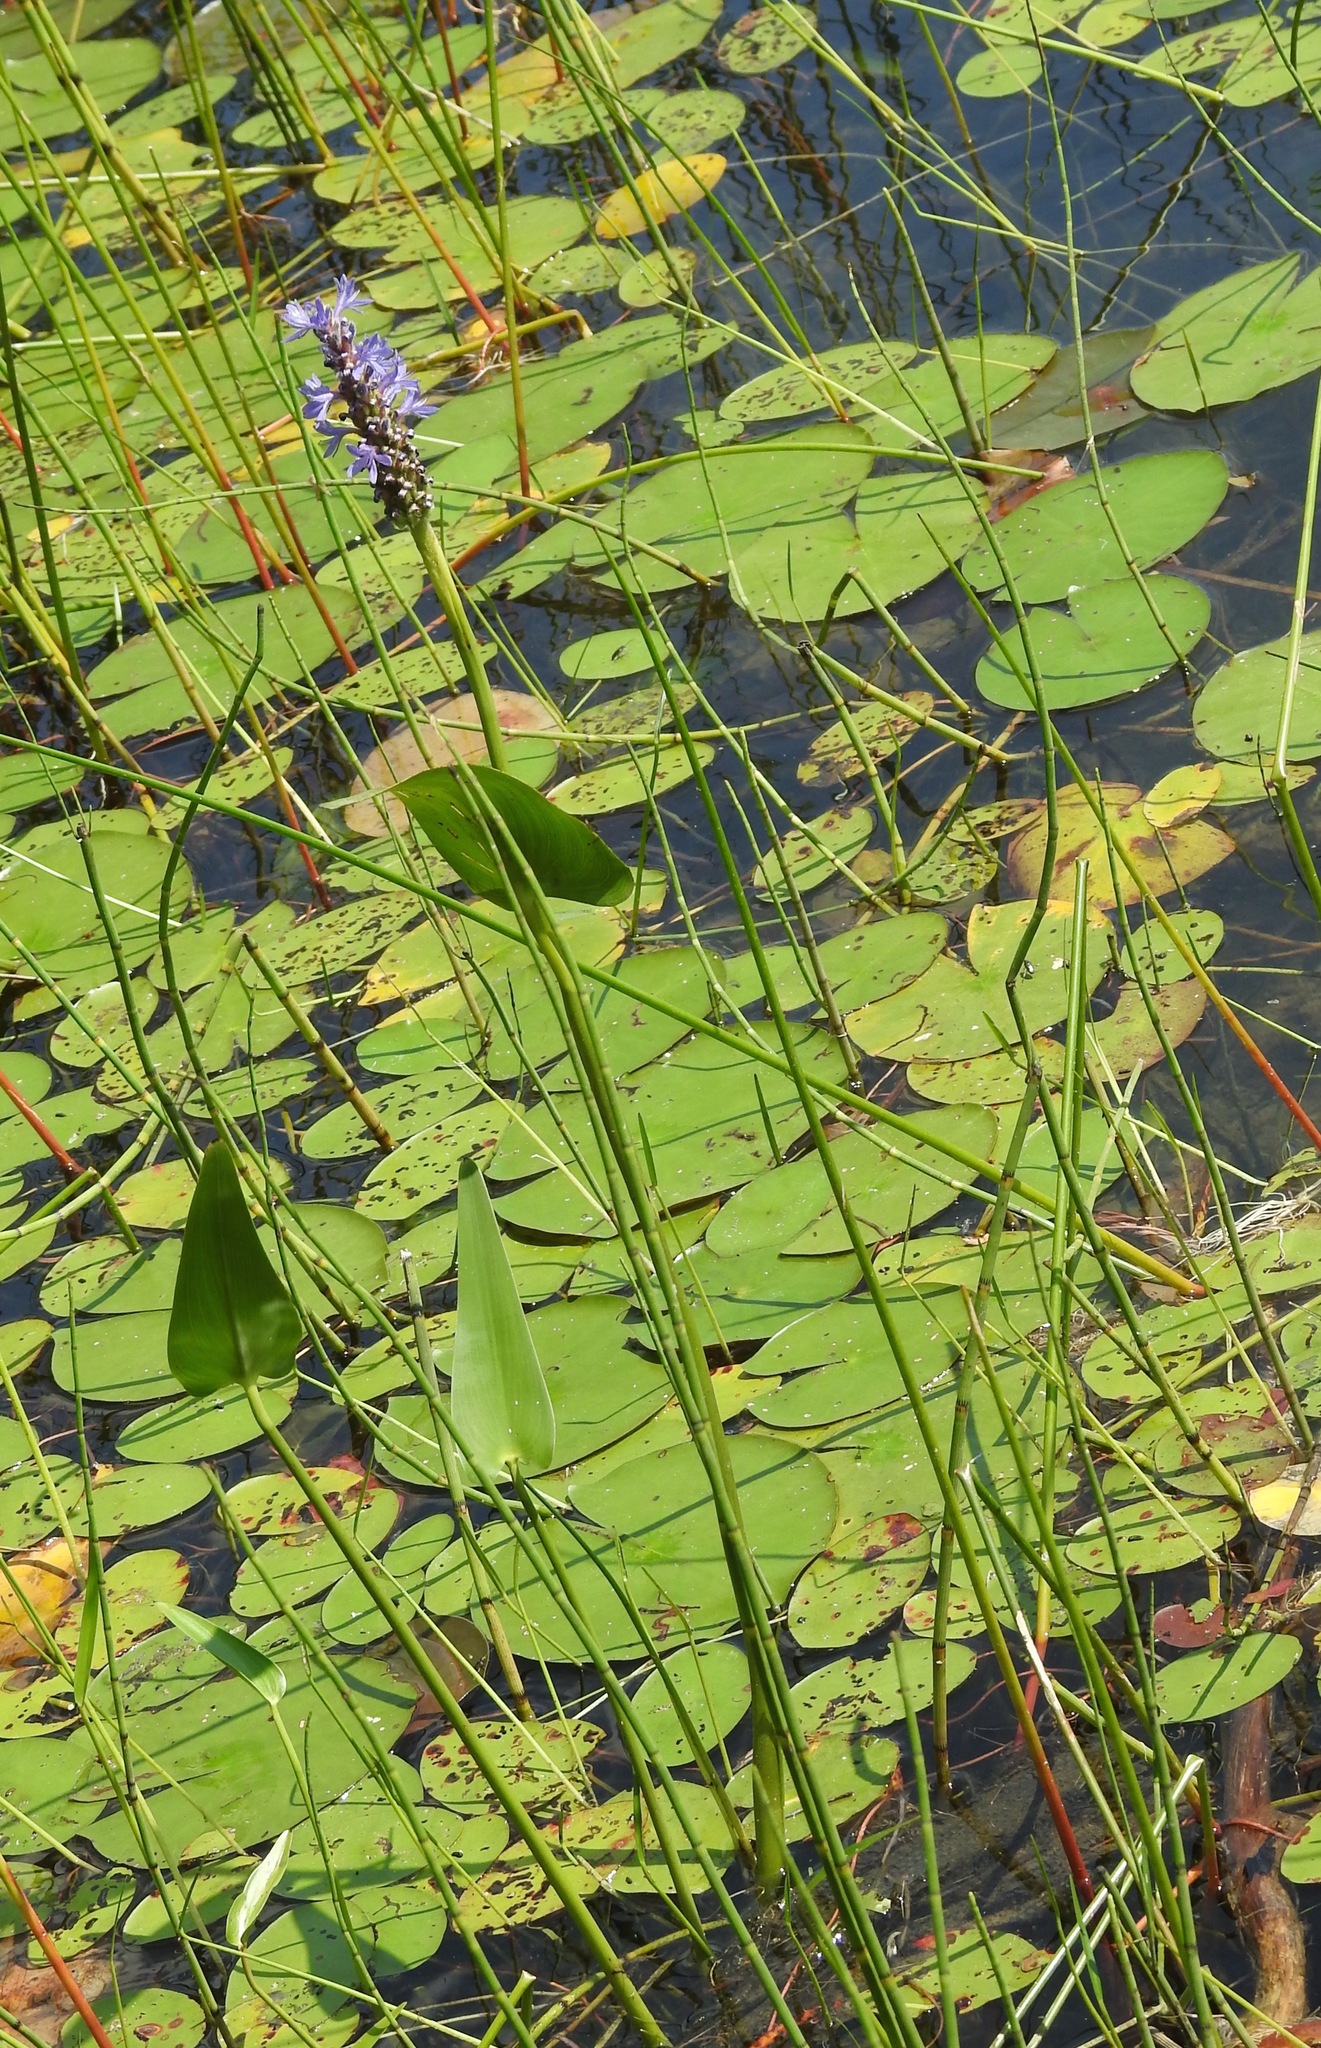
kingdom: Plantae
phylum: Tracheophyta
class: Liliopsida
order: Commelinales
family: Pontederiaceae
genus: Pontederia
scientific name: Pontederia cordata
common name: Pickerelweed
